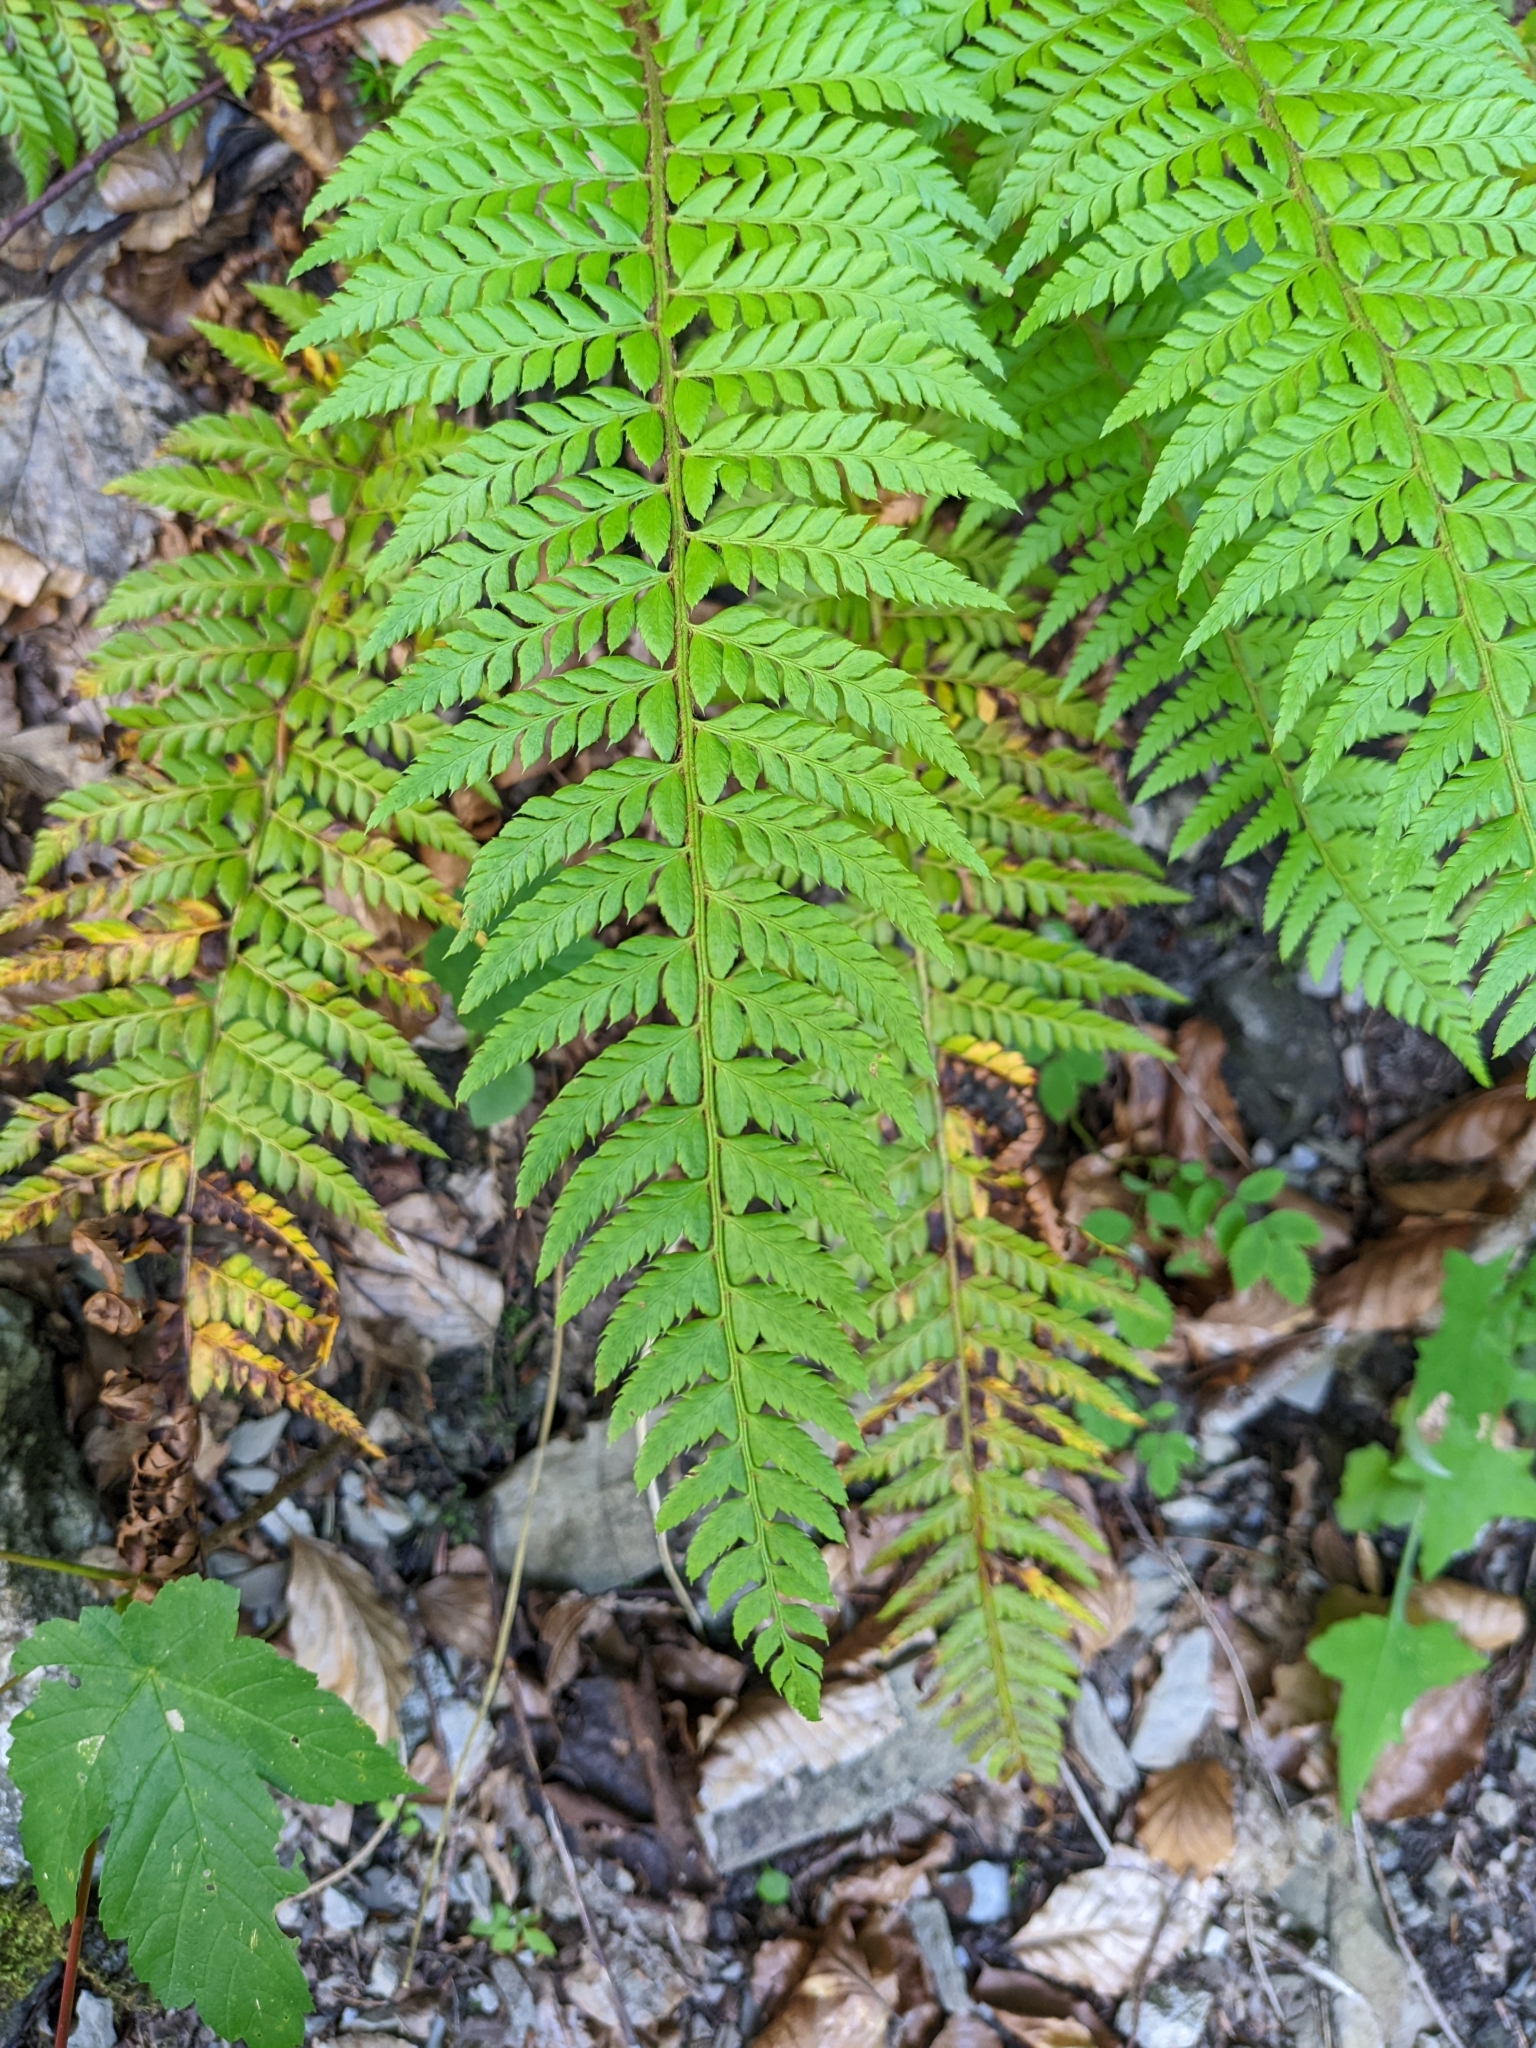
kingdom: Plantae
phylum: Tracheophyta
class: Polypodiopsida
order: Polypodiales
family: Dryopteridaceae
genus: Polystichum
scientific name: Polystichum aculeatum
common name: Hard shield-fern
